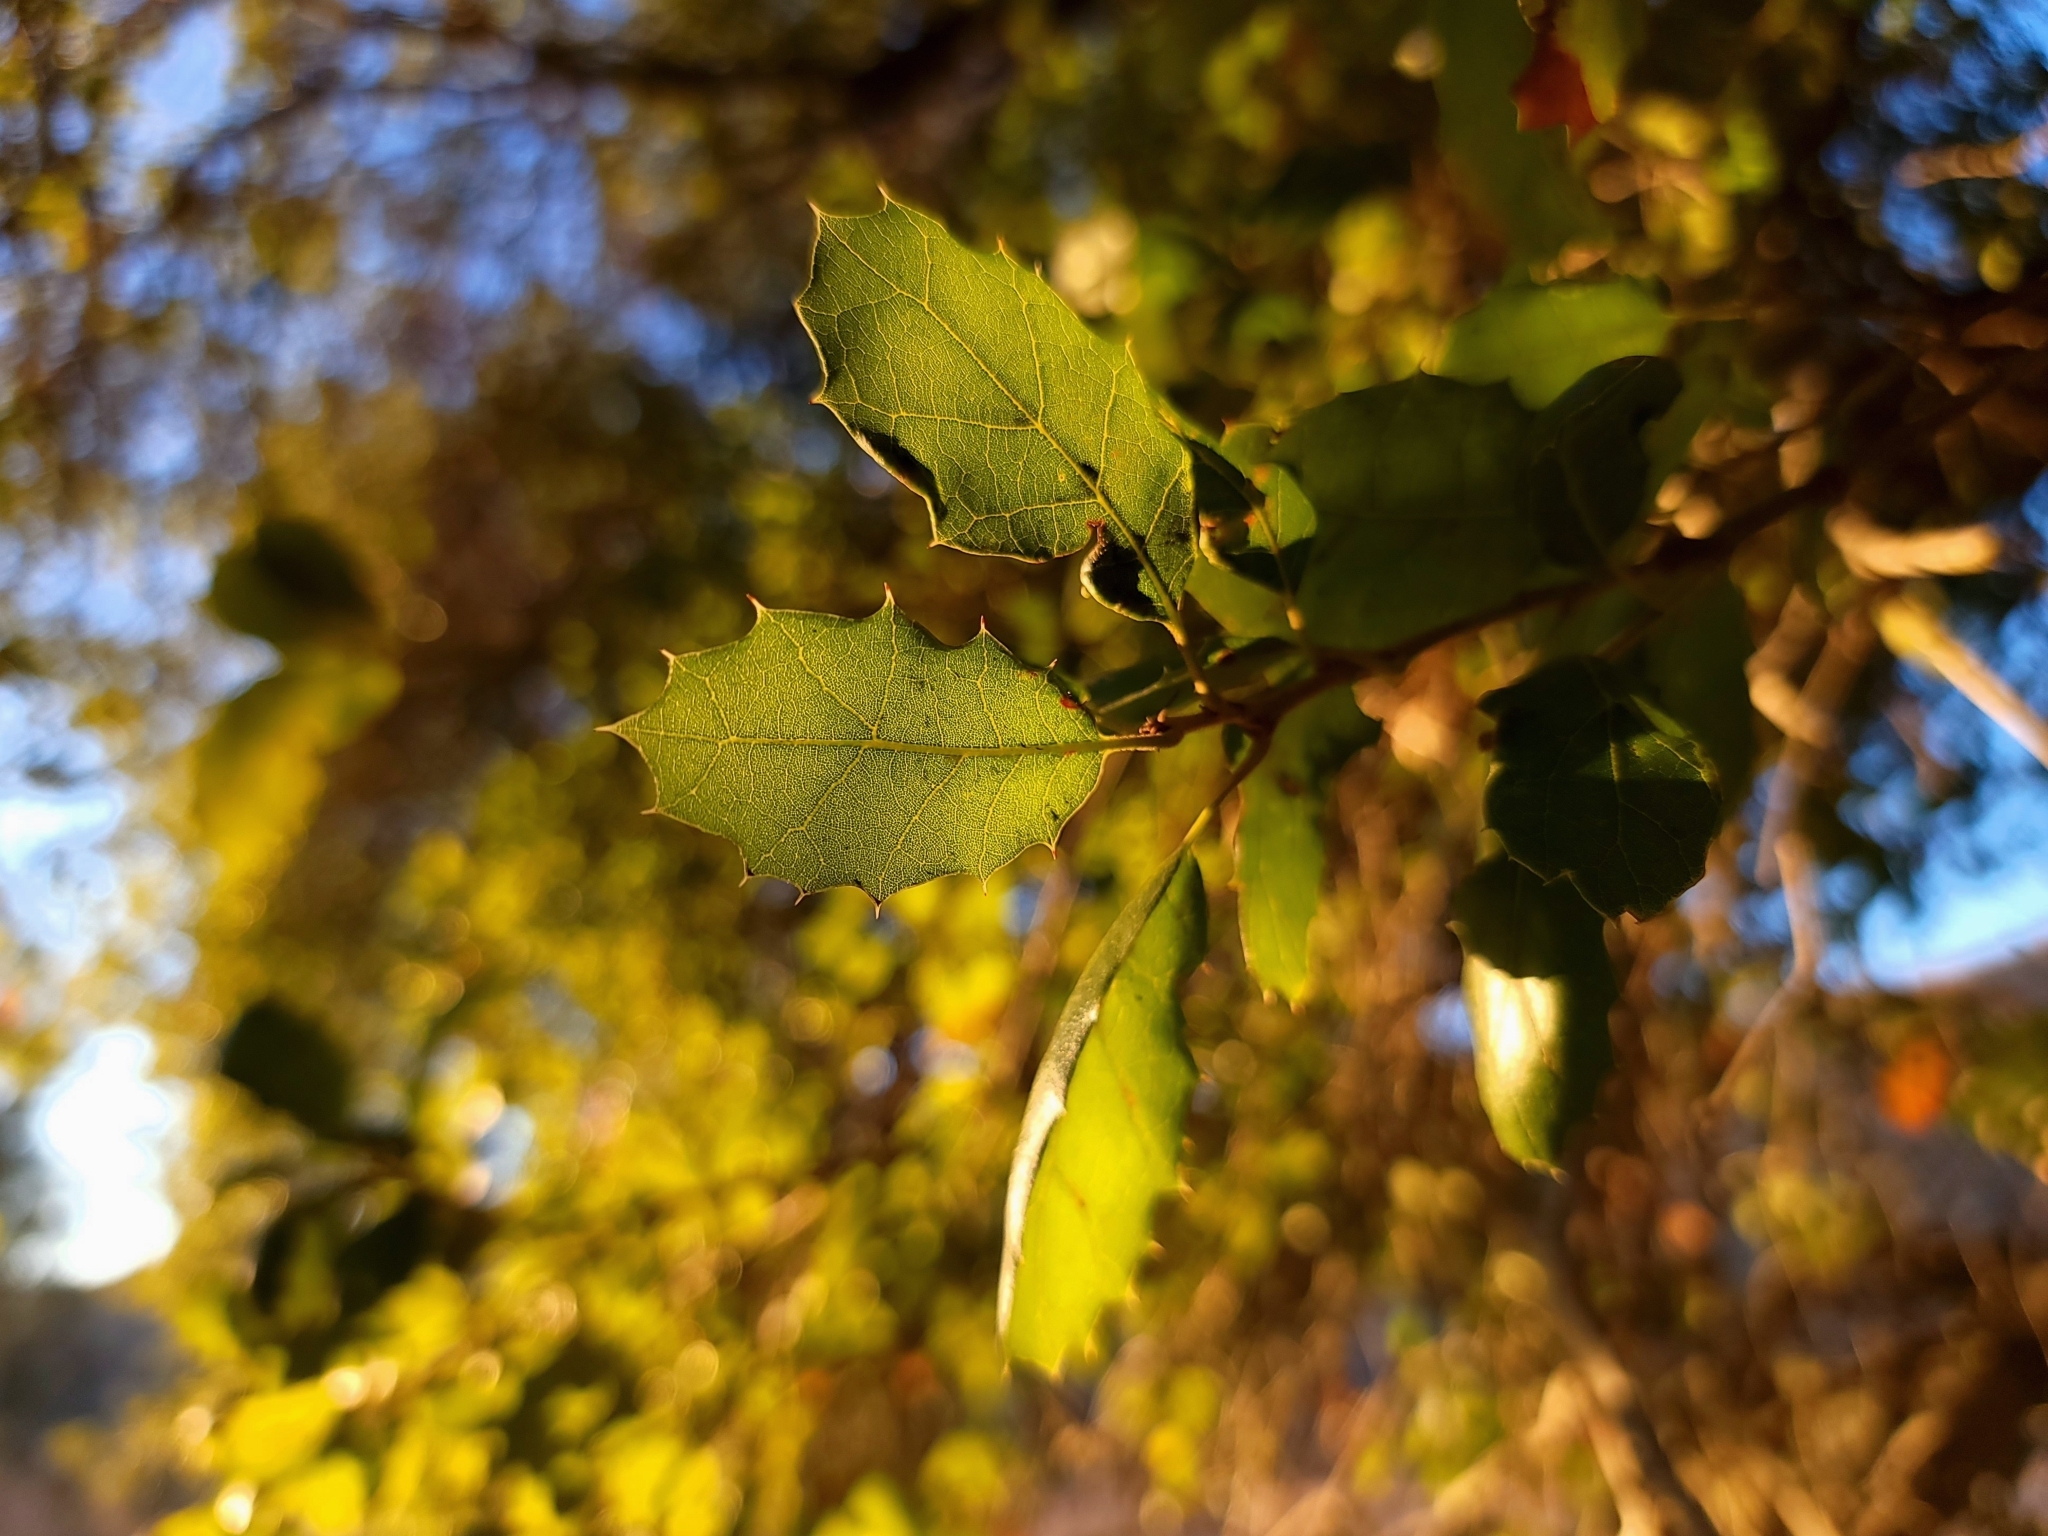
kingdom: Plantae
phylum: Tracheophyta
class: Magnoliopsida
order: Fagales
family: Fagaceae
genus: Quercus
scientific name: Quercus agrifolia
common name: California live oak
